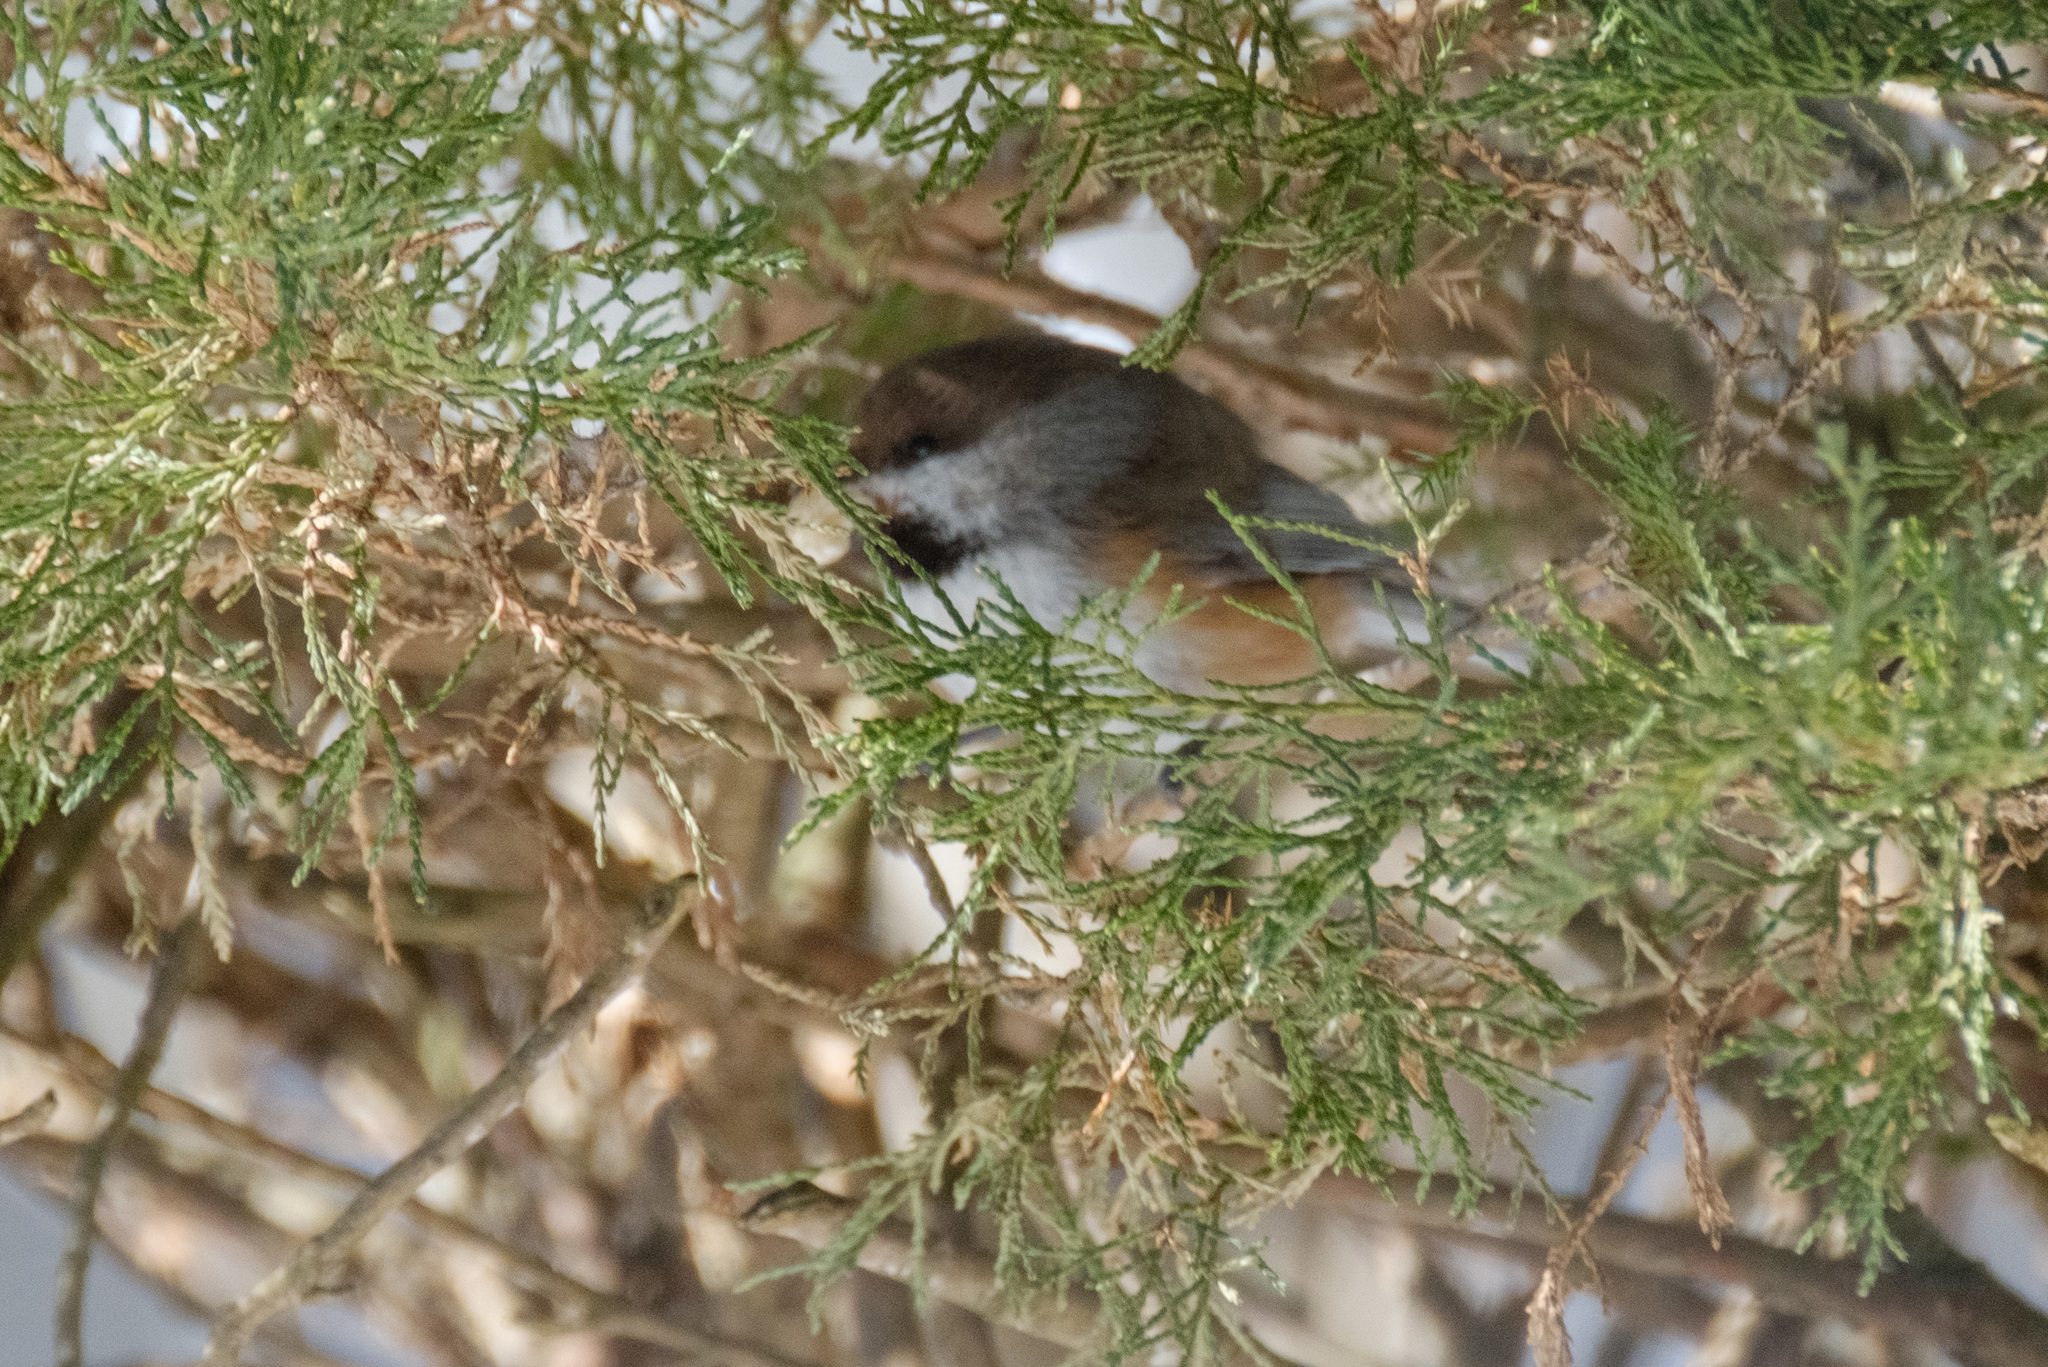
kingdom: Animalia
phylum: Chordata
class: Aves
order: Passeriformes
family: Paridae
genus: Poecile
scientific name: Poecile hudsonicus
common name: Boreal chickadee
